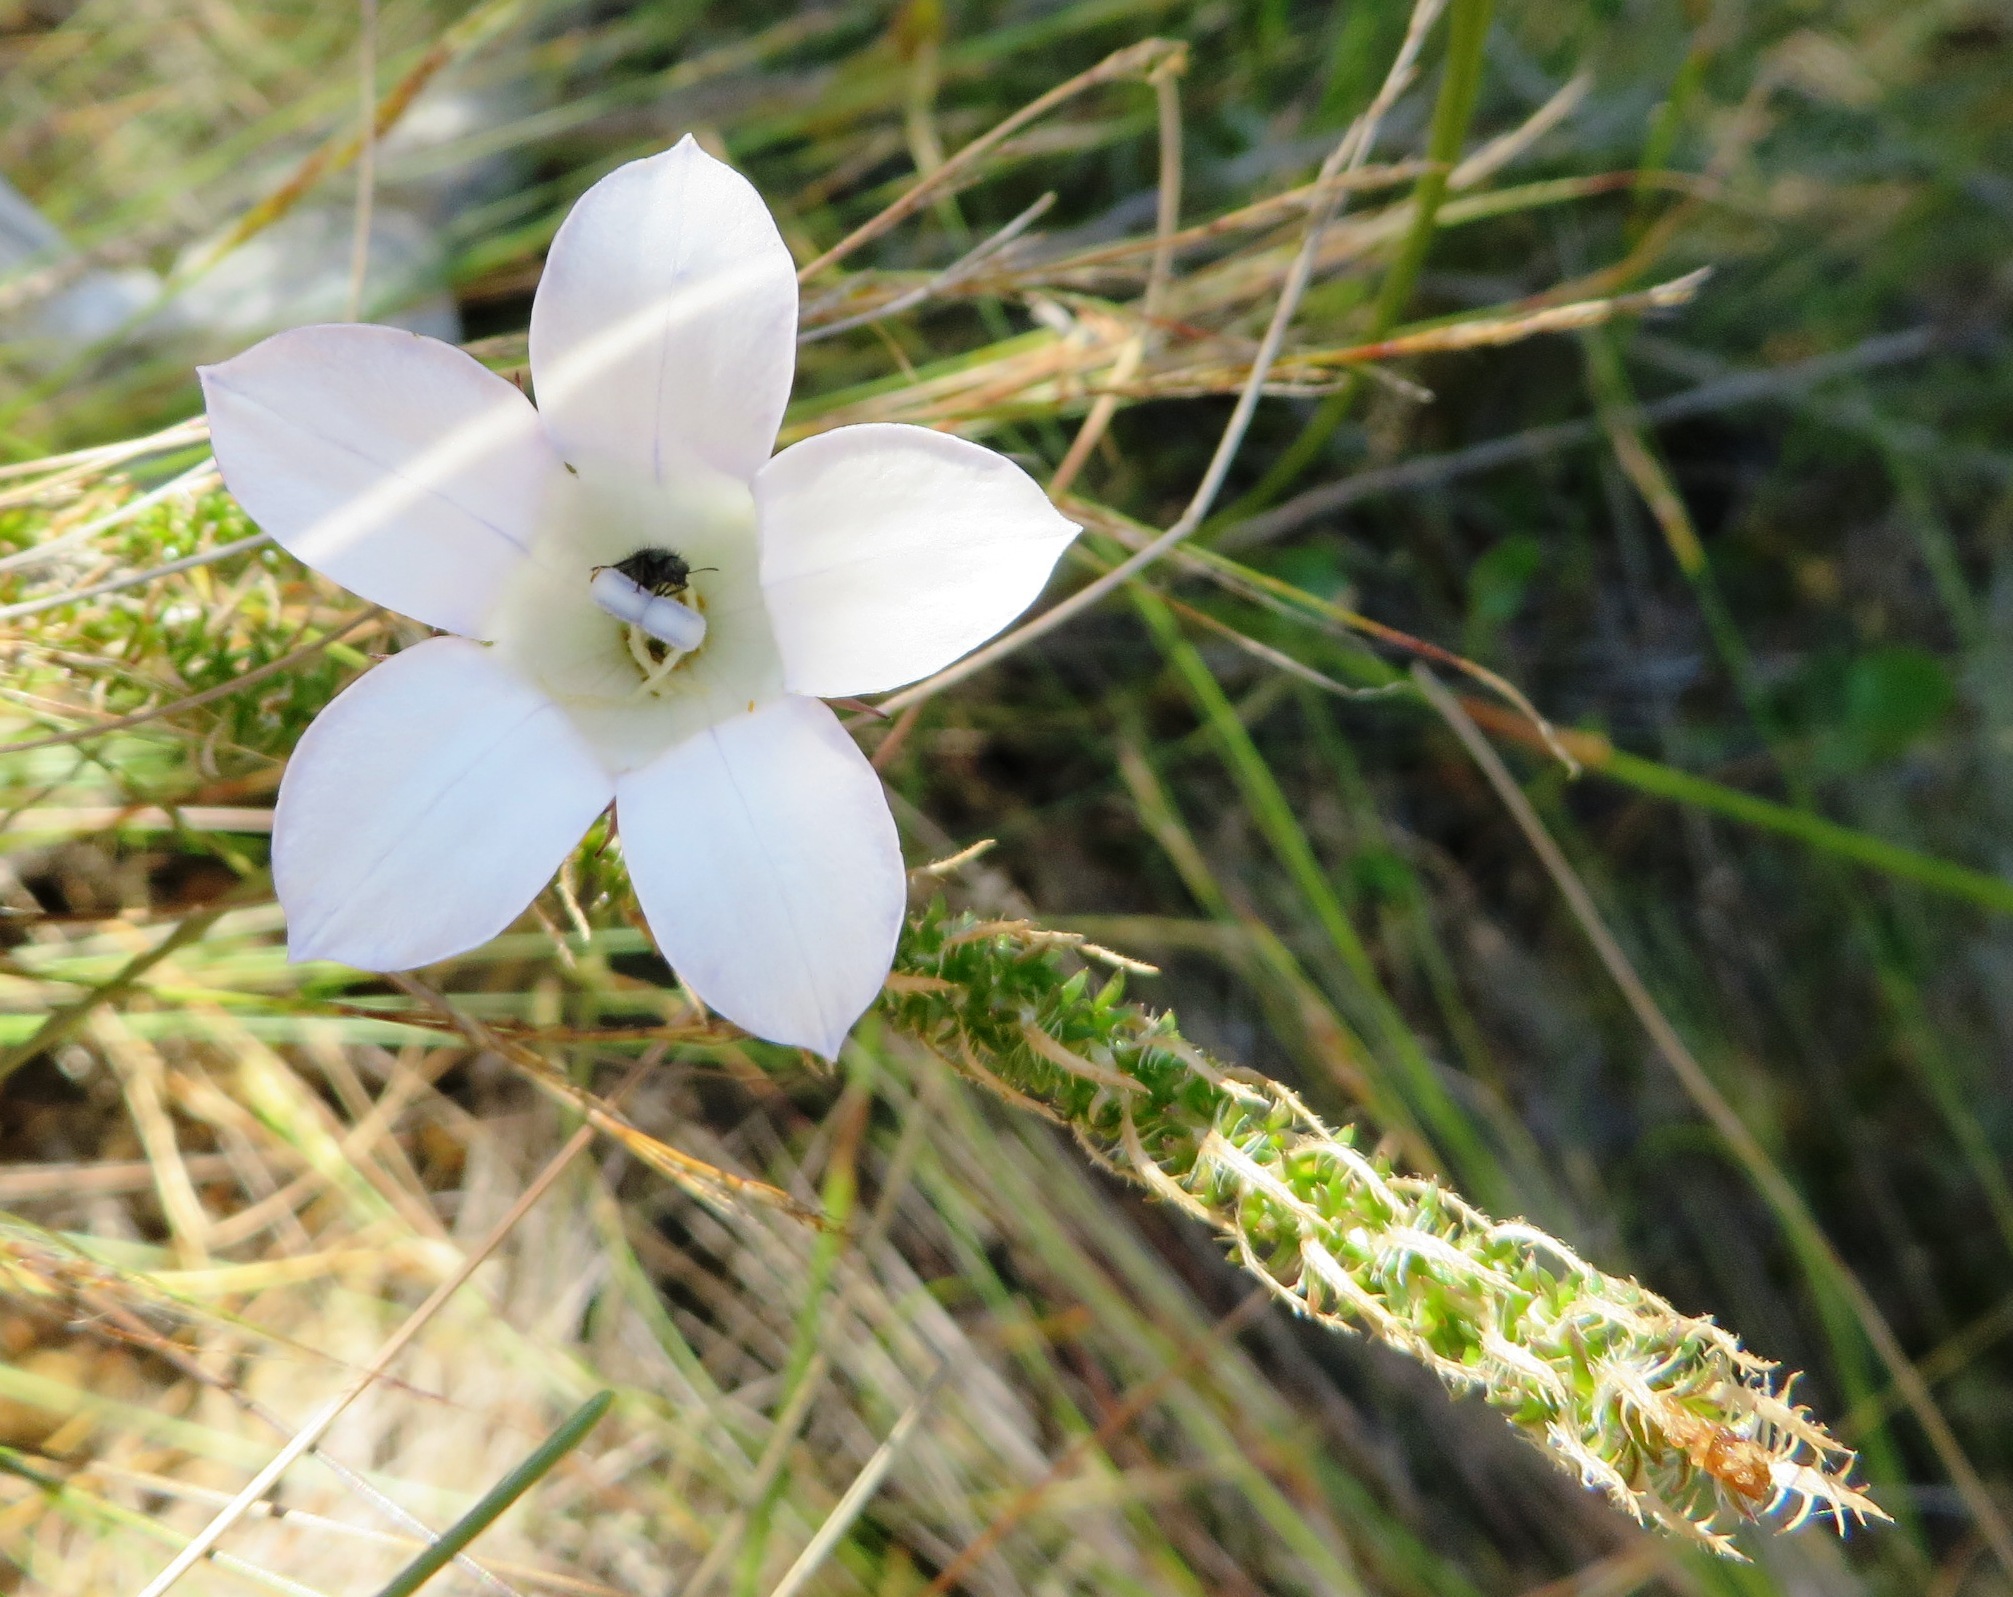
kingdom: Plantae
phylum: Tracheophyta
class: Magnoliopsida
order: Asterales
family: Campanulaceae
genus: Roella
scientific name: Roella incurva
